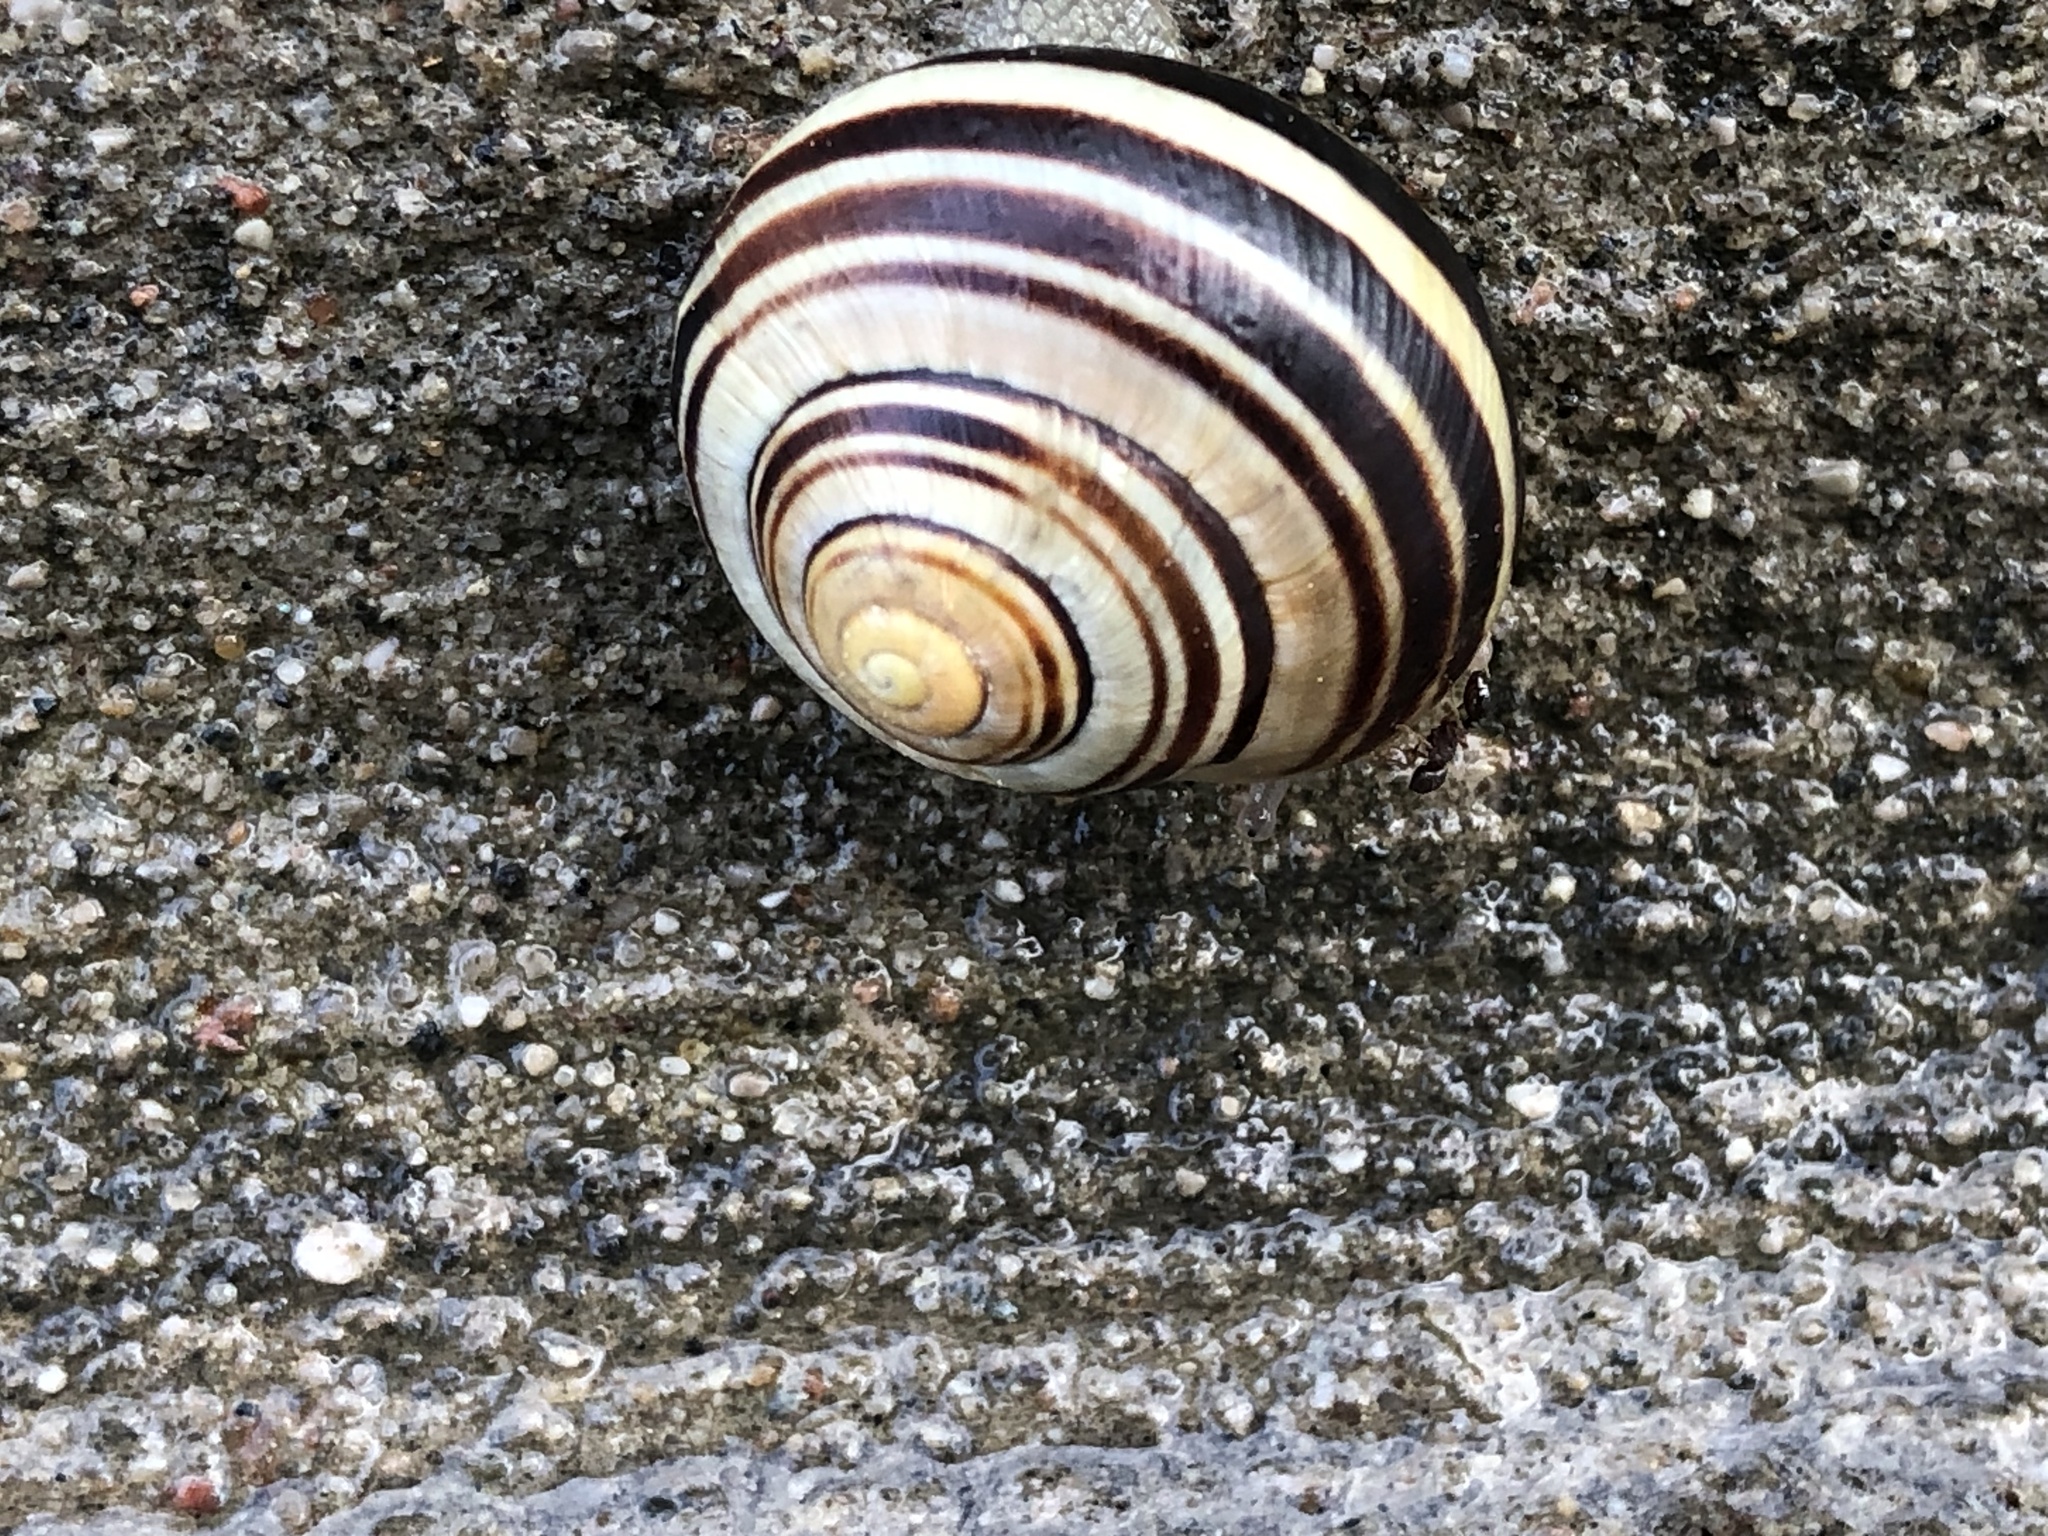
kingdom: Animalia
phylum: Mollusca
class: Gastropoda
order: Stylommatophora
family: Helicidae
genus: Cepaea
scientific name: Cepaea nemoralis
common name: Grovesnail
